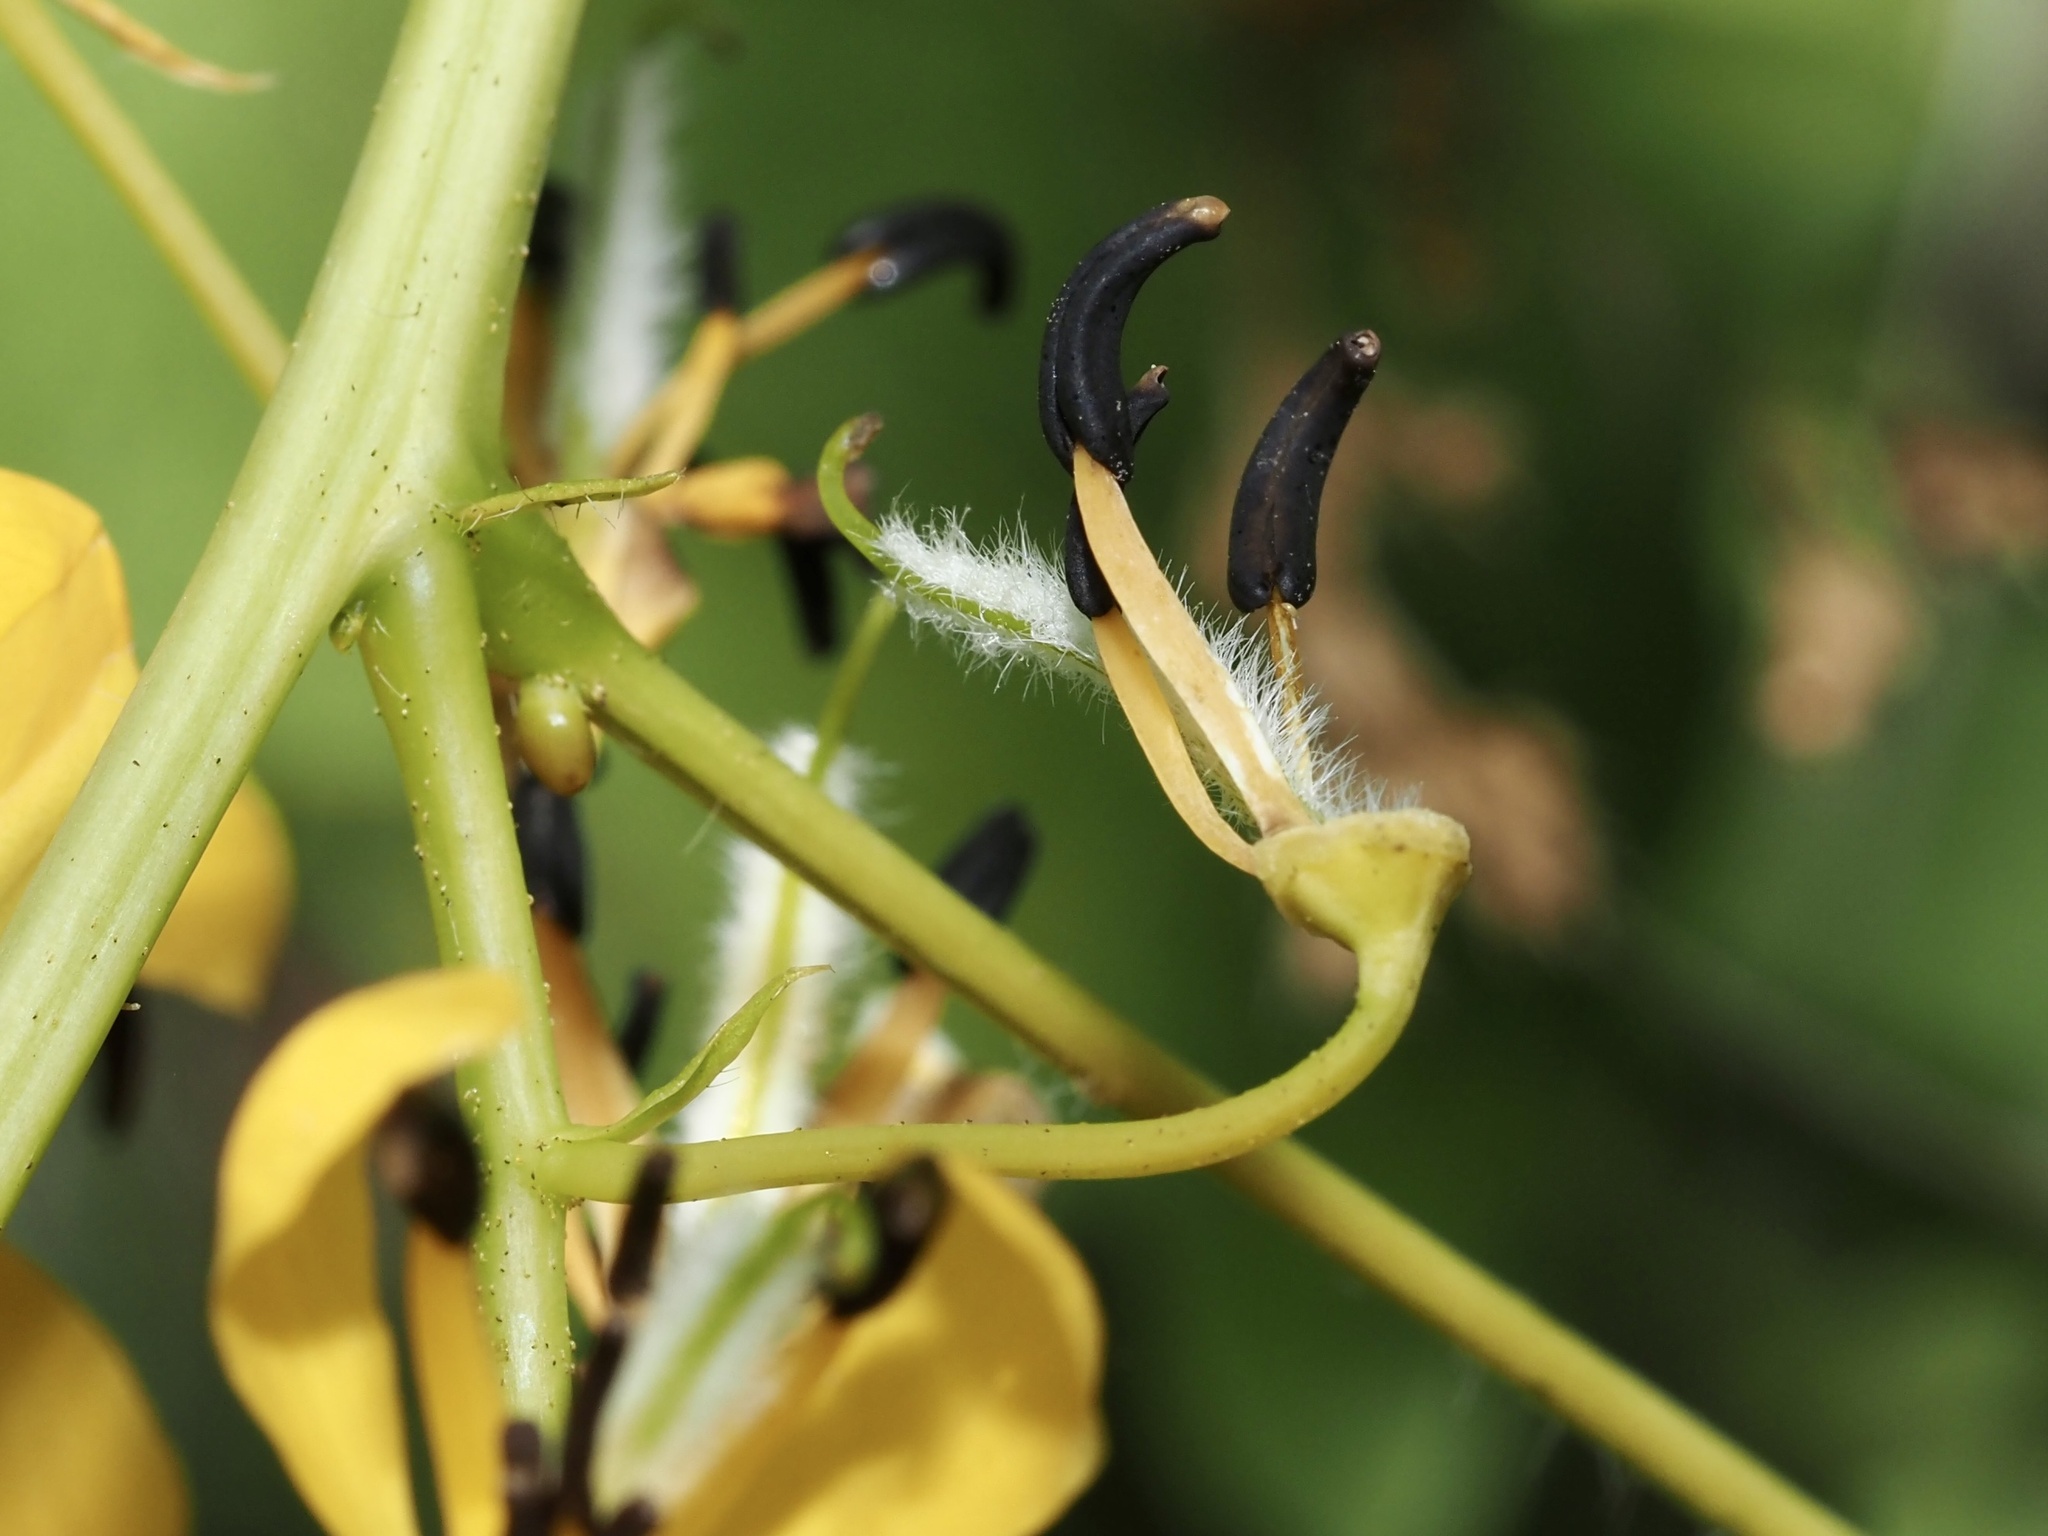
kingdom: Plantae
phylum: Tracheophyta
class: Magnoliopsida
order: Fabales
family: Fabaceae
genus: Senna
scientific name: Senna hebecarpa
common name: Wild senna
